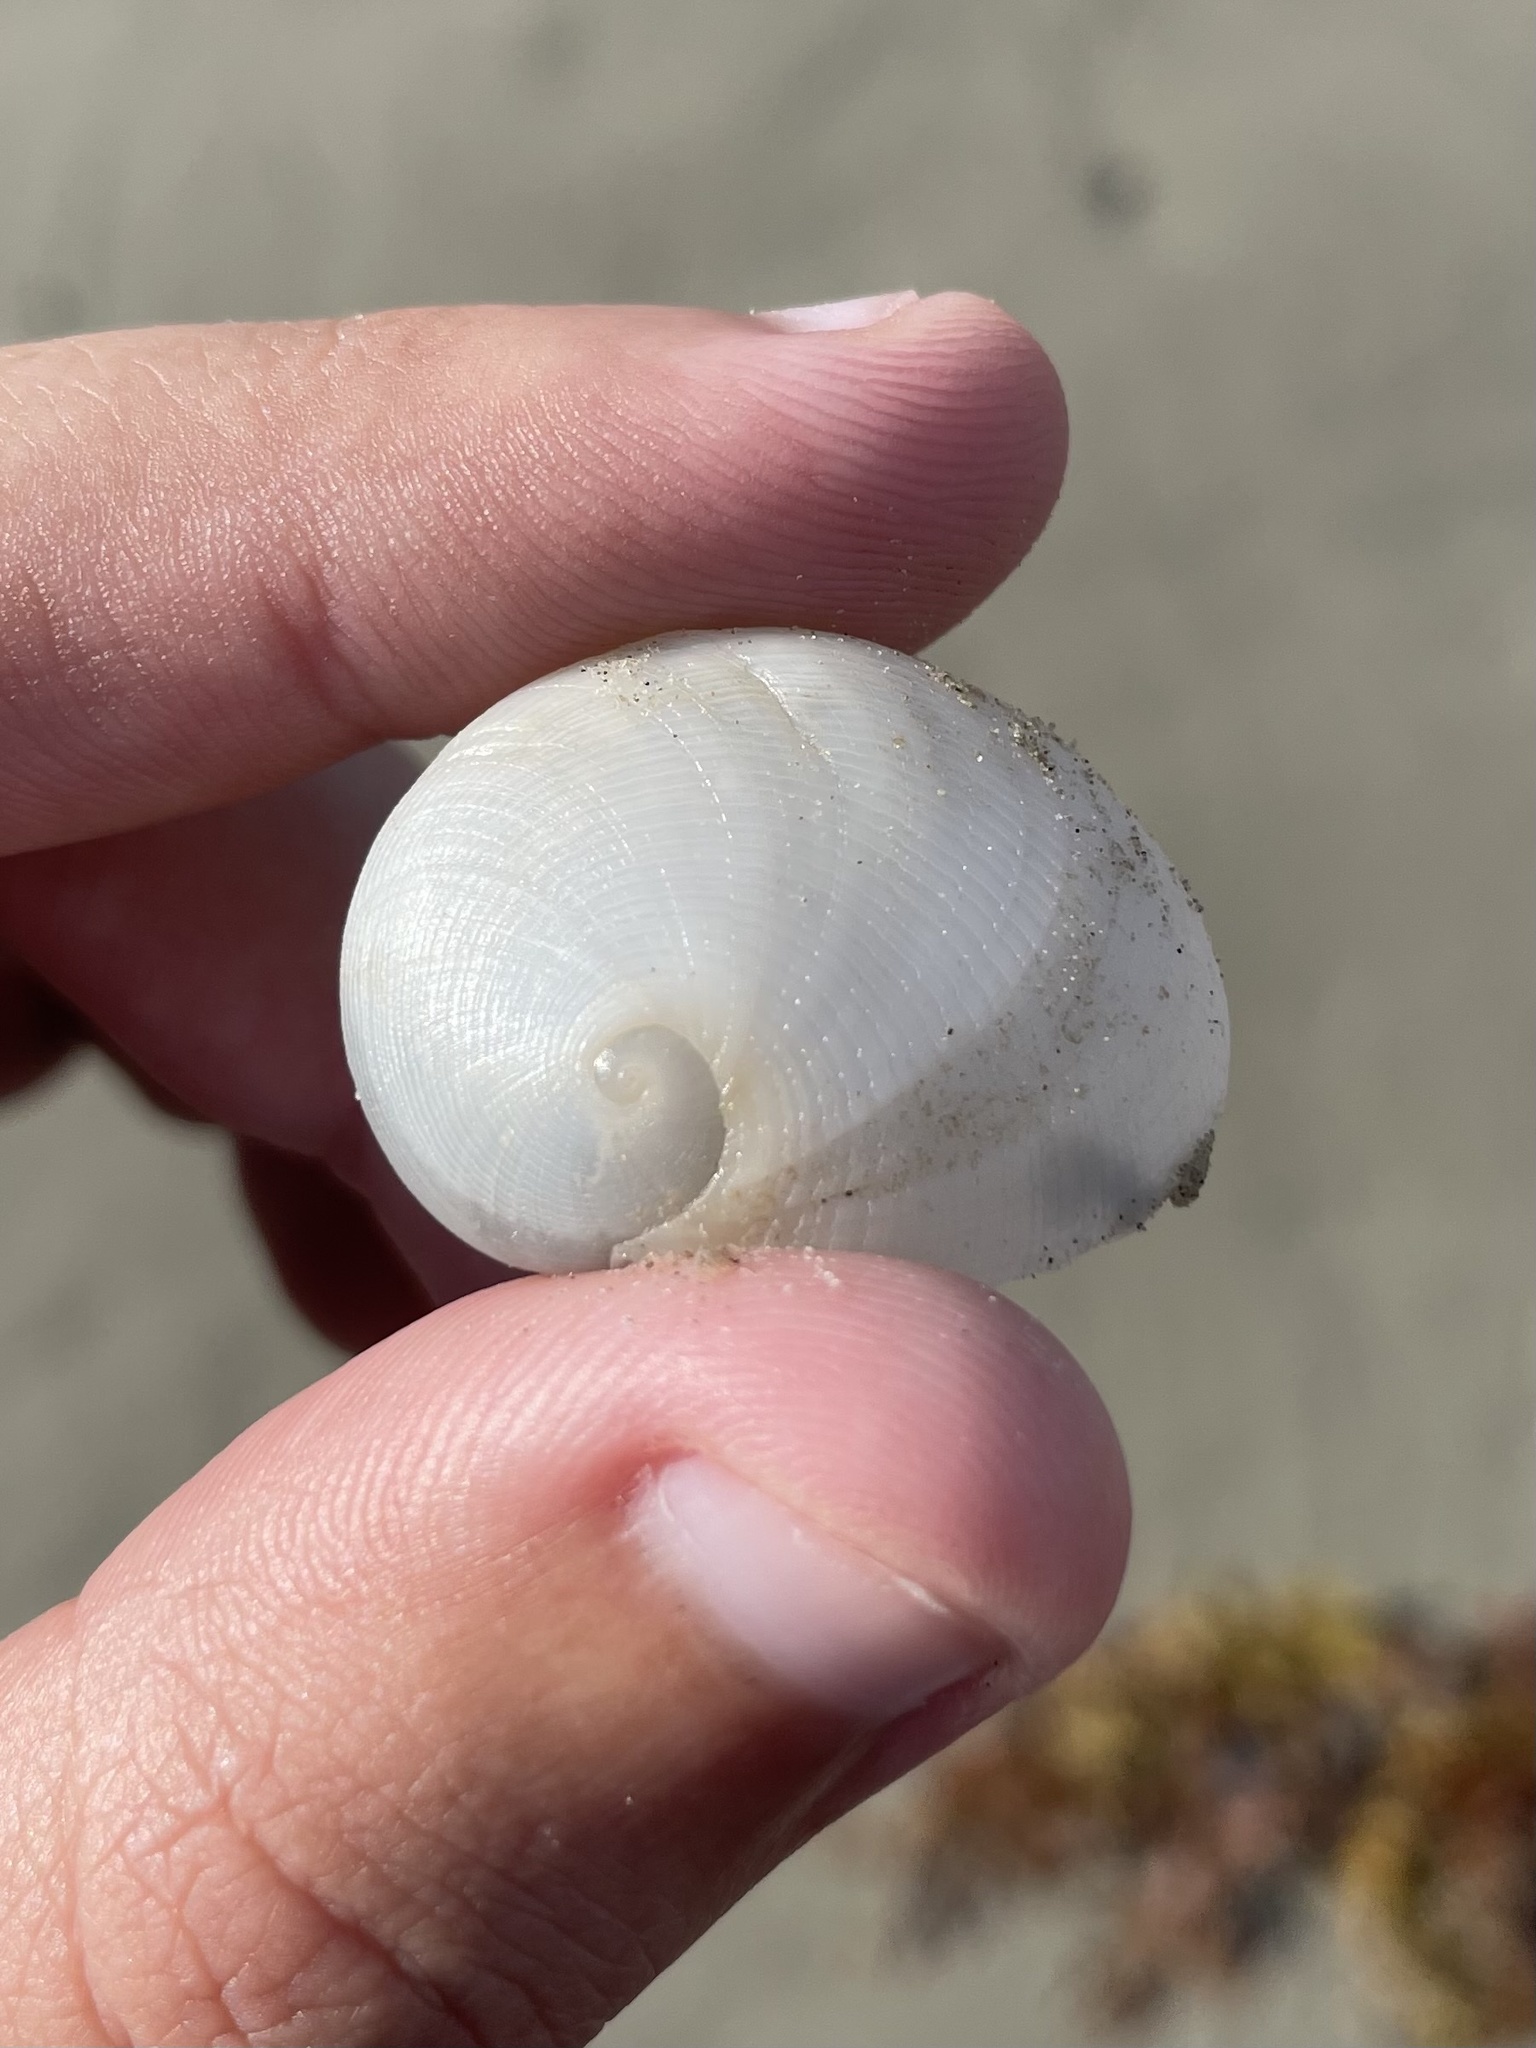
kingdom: Animalia
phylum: Mollusca
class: Gastropoda
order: Littorinimorpha
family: Naticidae
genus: Sinum
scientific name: Sinum perspectivum
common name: White baby ear
